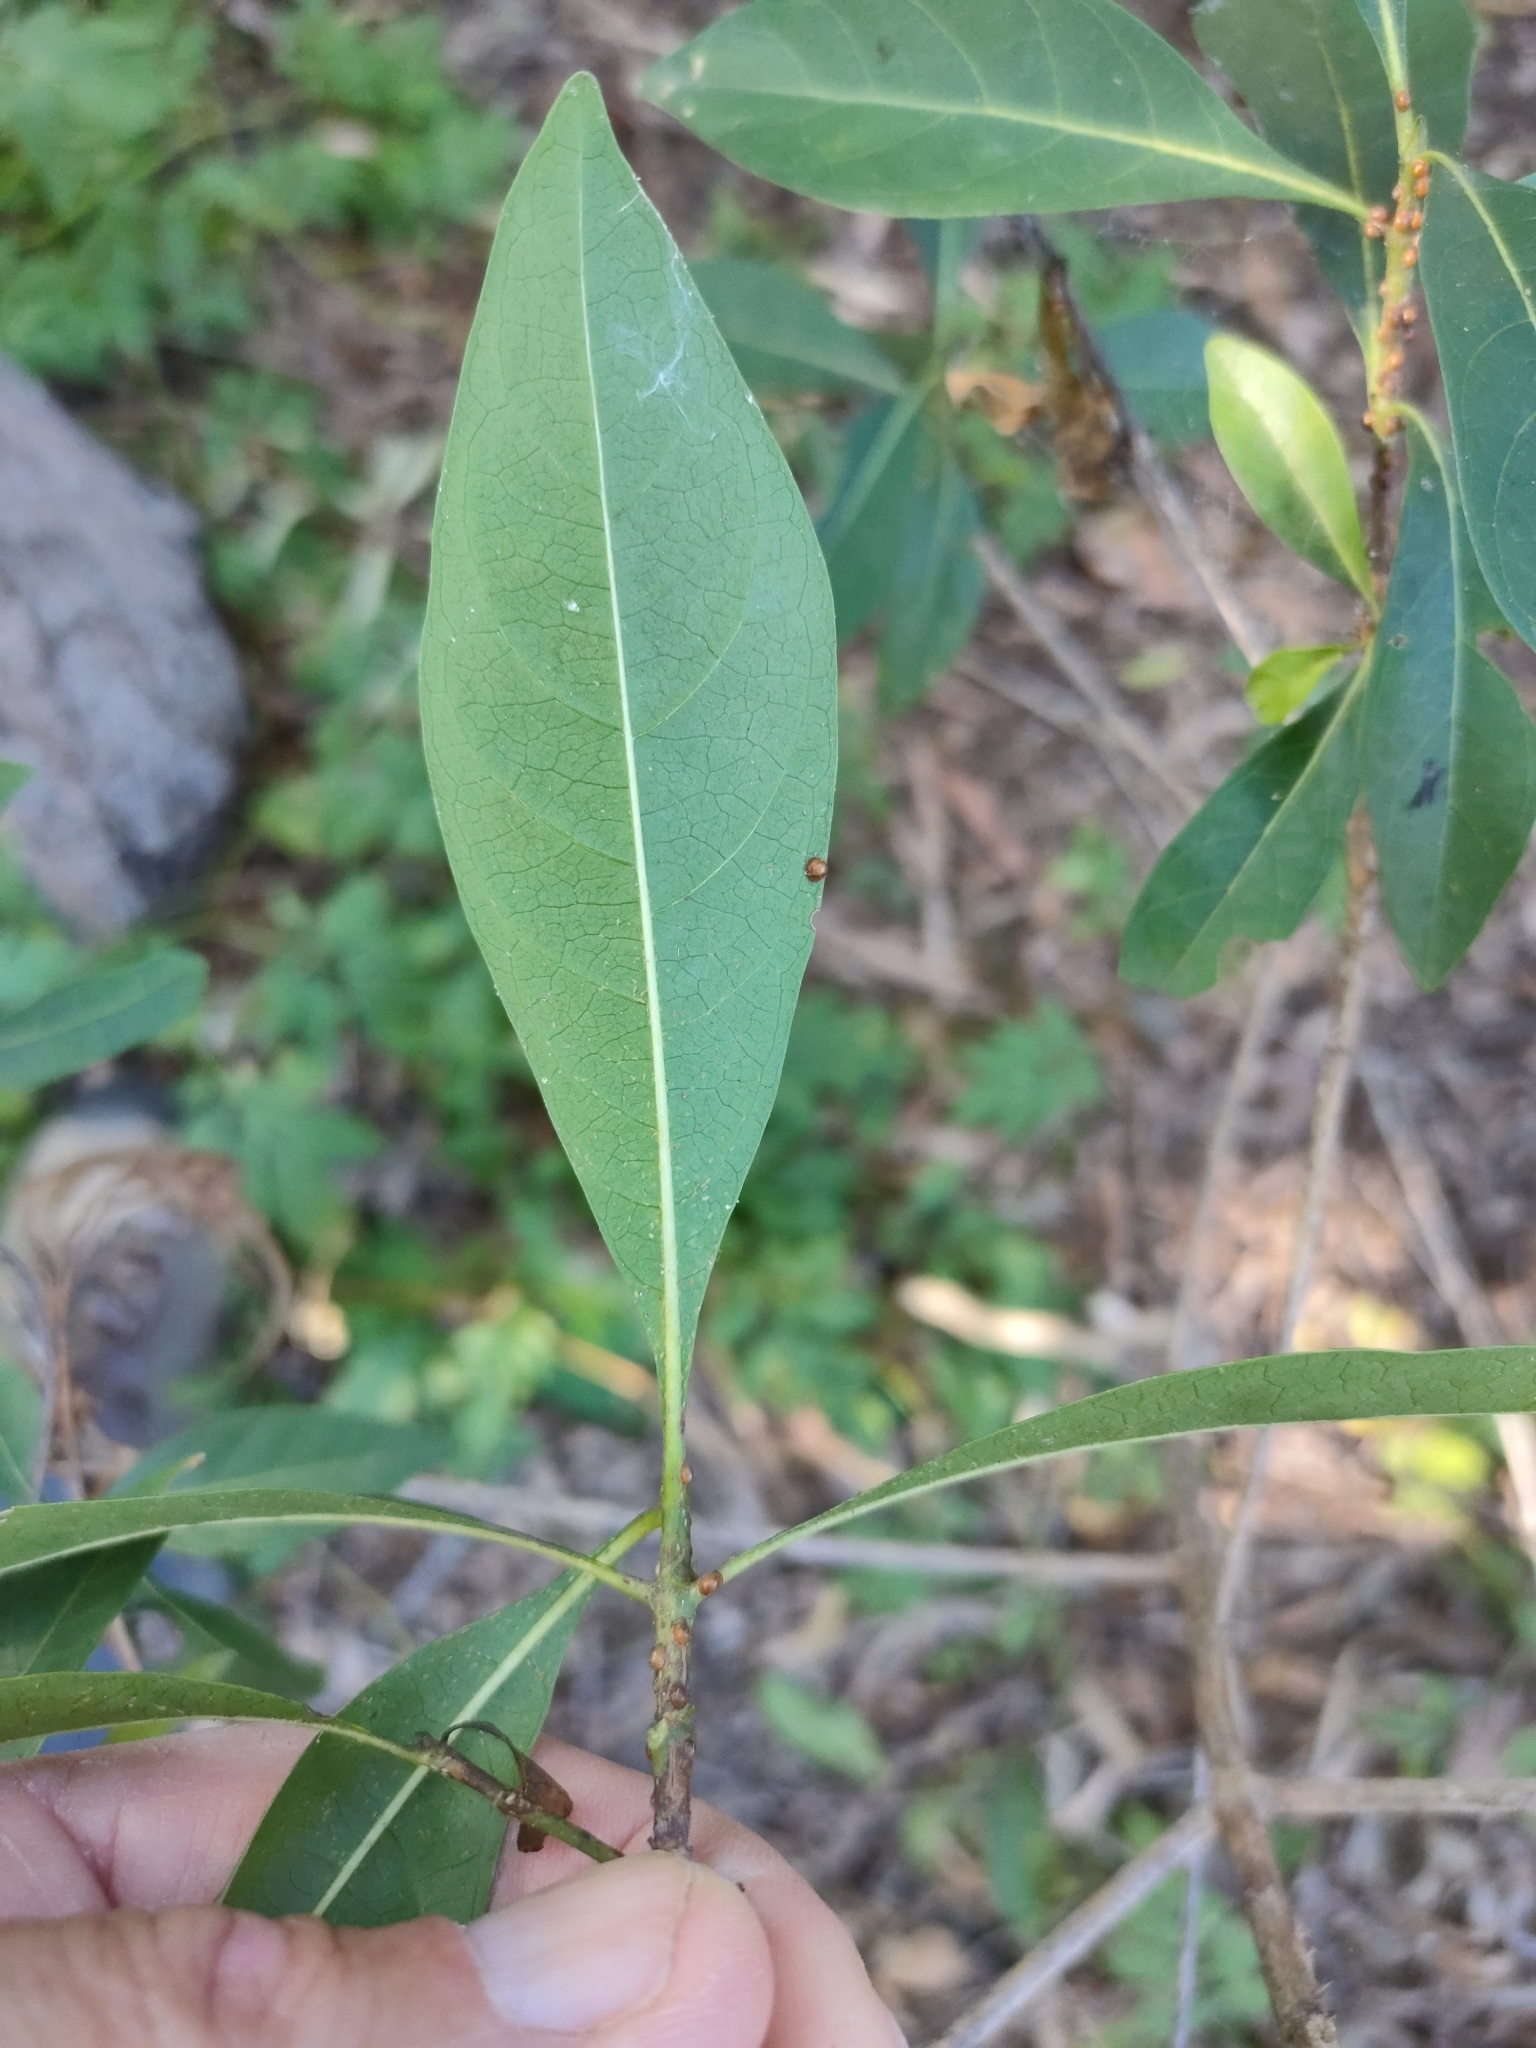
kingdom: Plantae
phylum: Tracheophyta
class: Magnoliopsida
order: Gentianales
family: Rubiaceae
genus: Pavetta
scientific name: Pavetta australiensis
